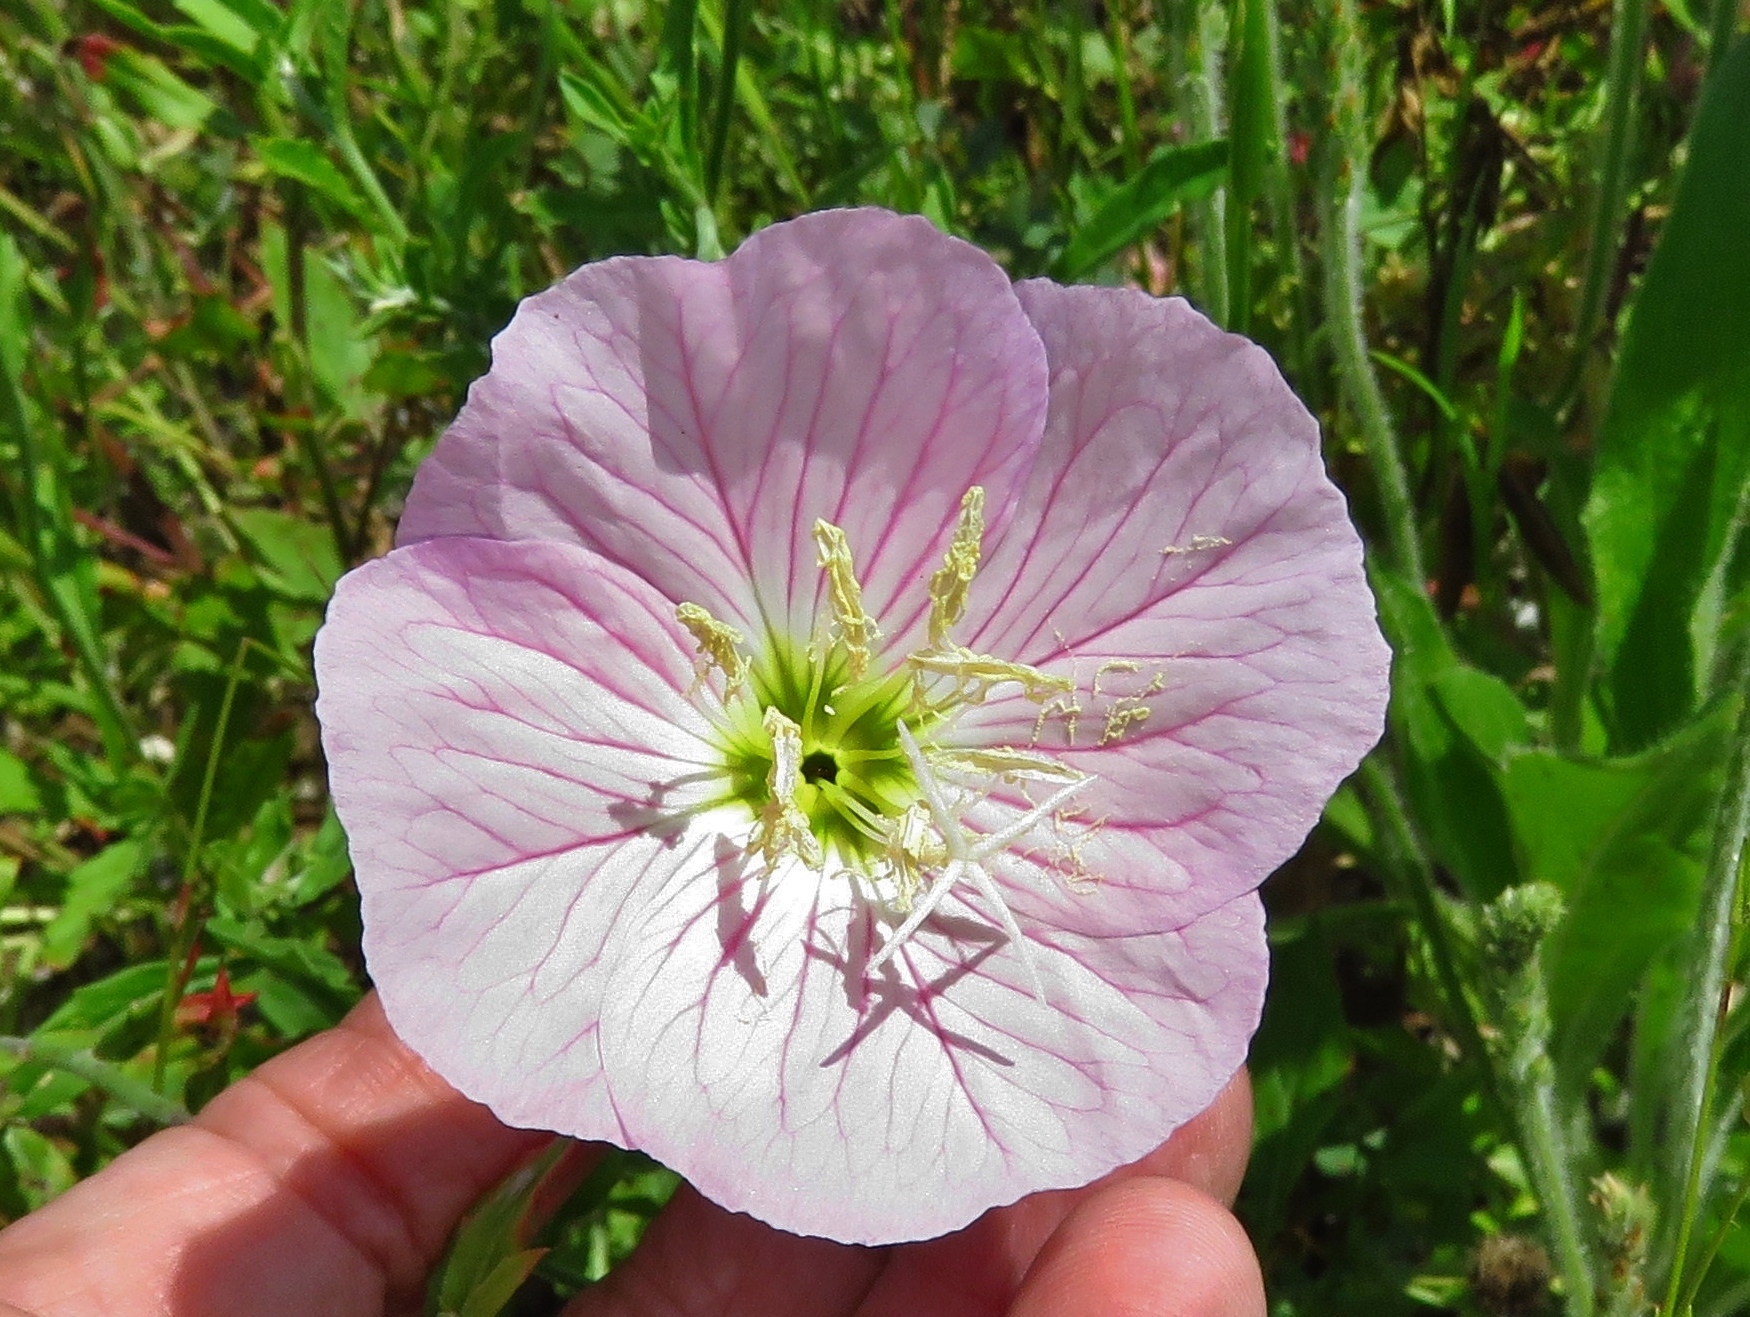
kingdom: Plantae
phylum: Tracheophyta
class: Magnoliopsida
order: Myrtales
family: Onagraceae
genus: Oenothera
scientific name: Oenothera speciosa
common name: White evening-primrose
